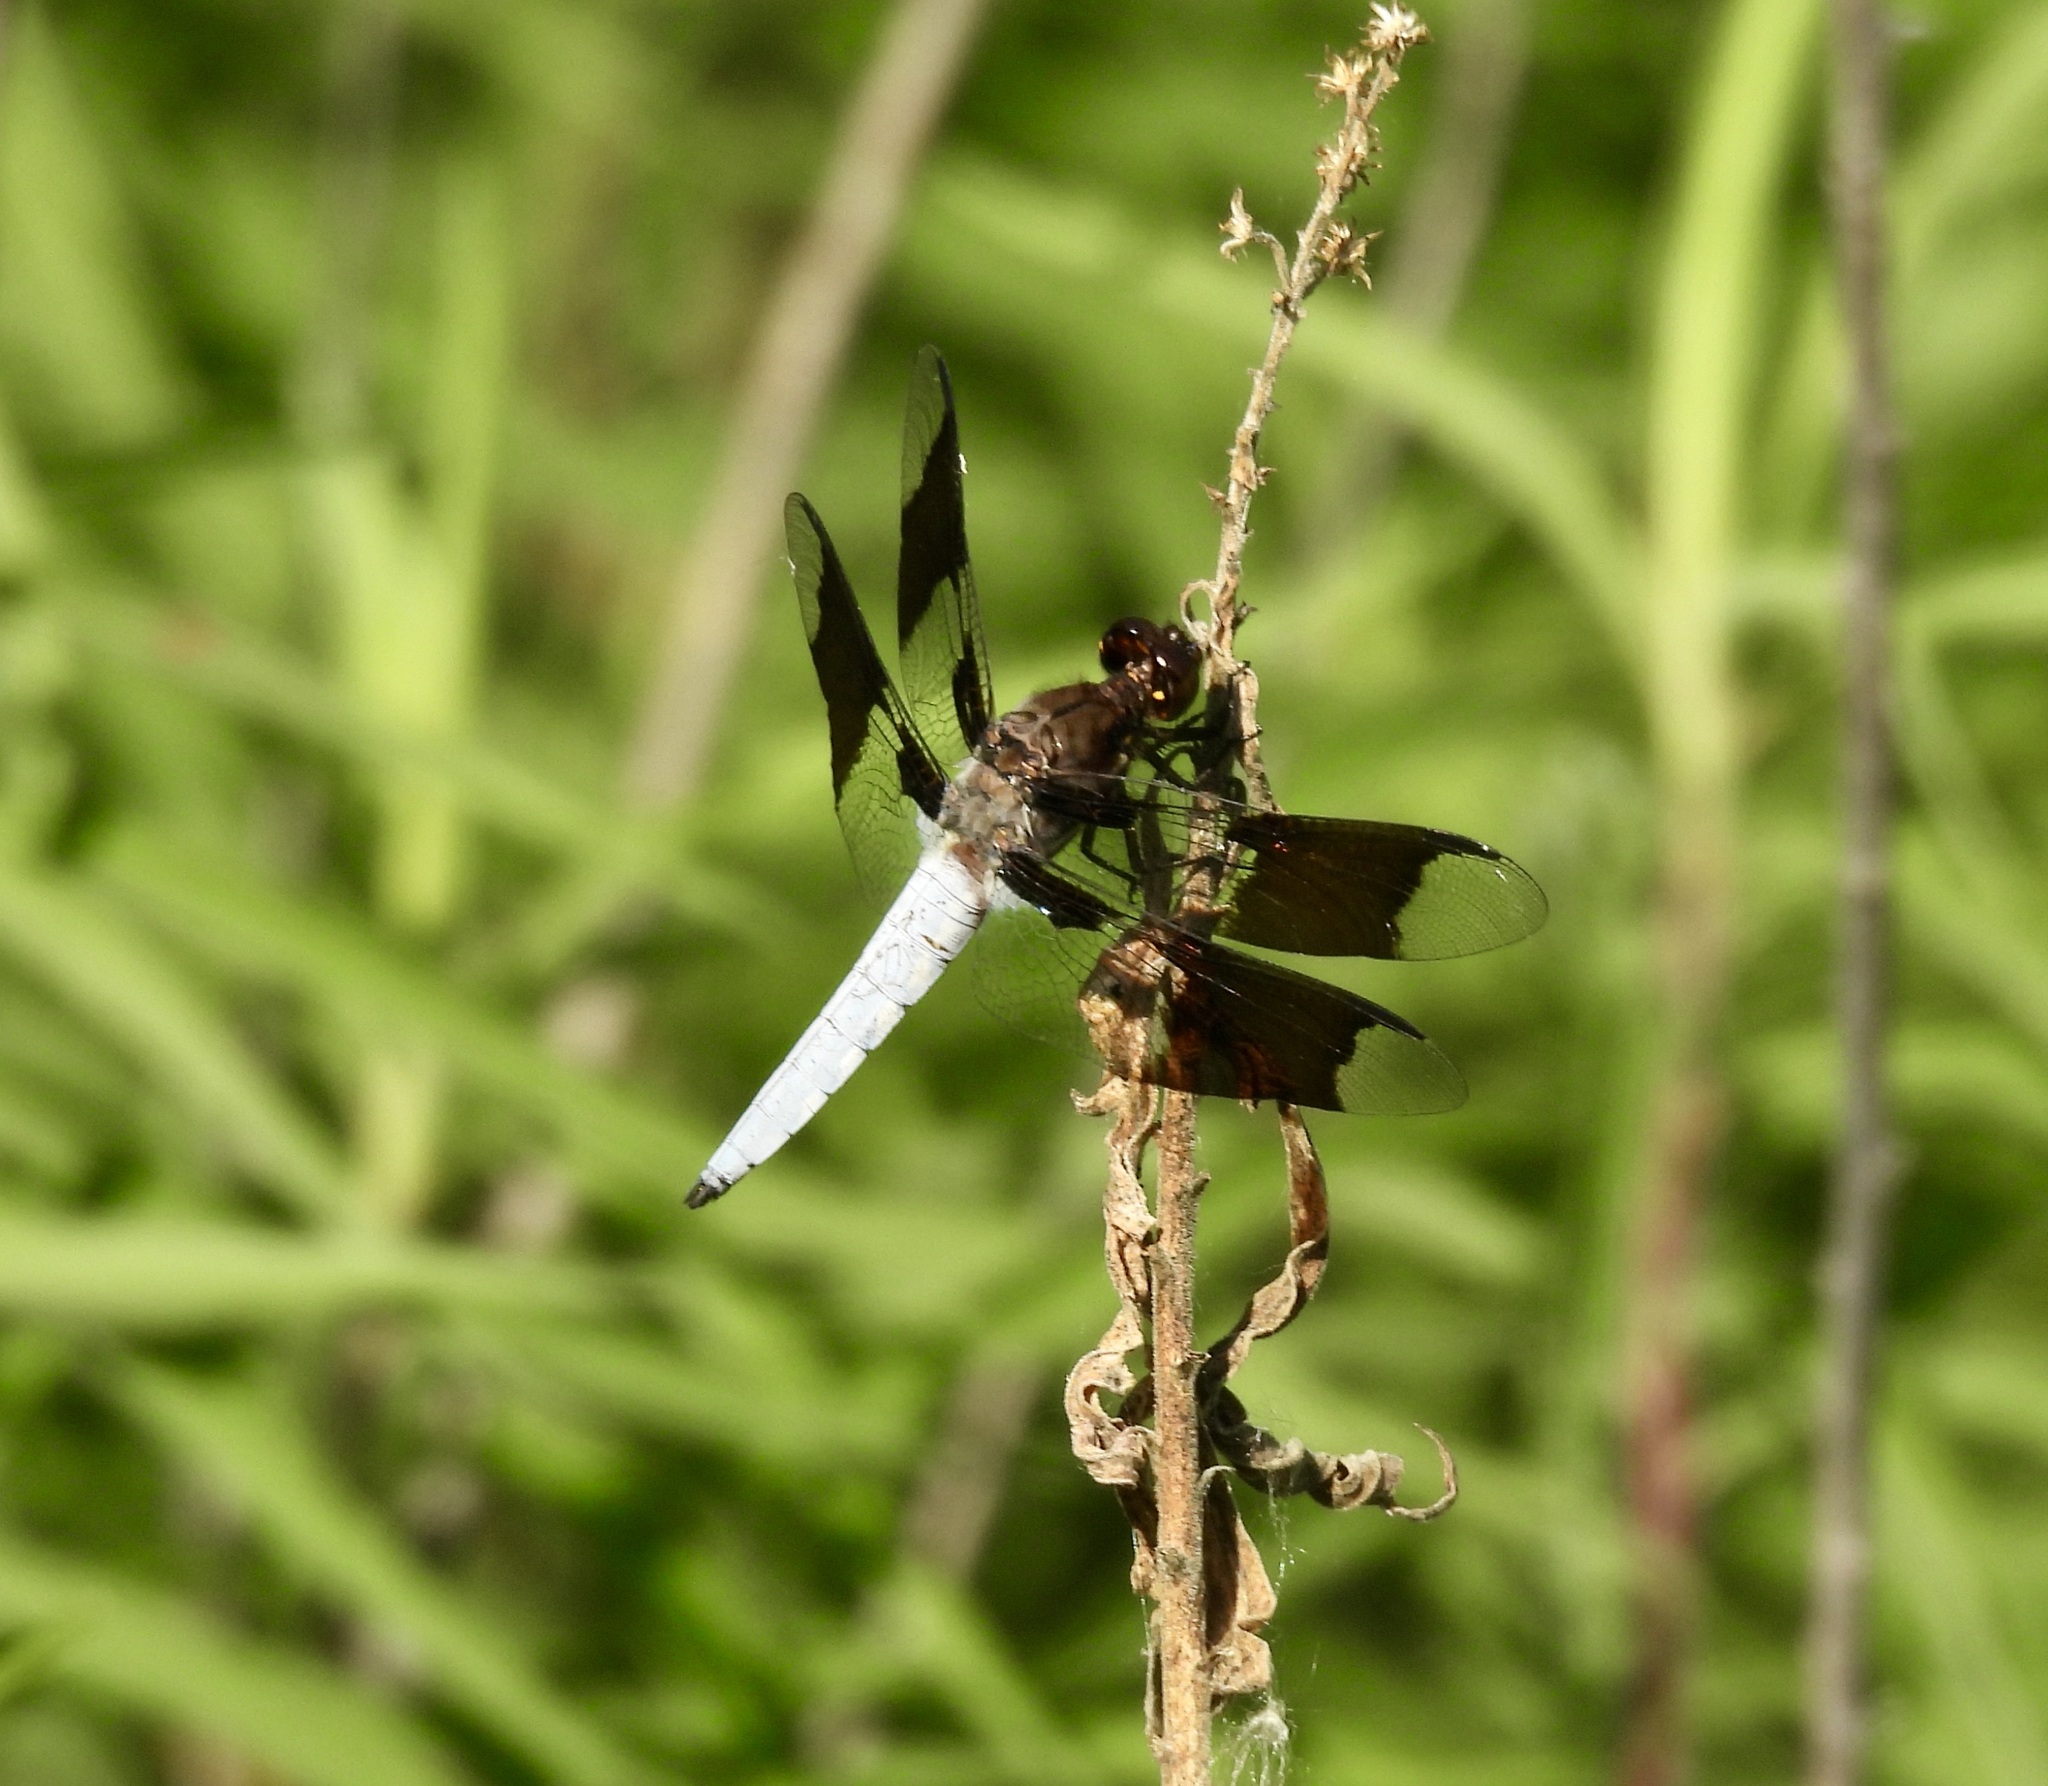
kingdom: Animalia
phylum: Arthropoda
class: Insecta
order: Odonata
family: Libellulidae
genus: Plathemis
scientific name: Plathemis lydia
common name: Common whitetail
